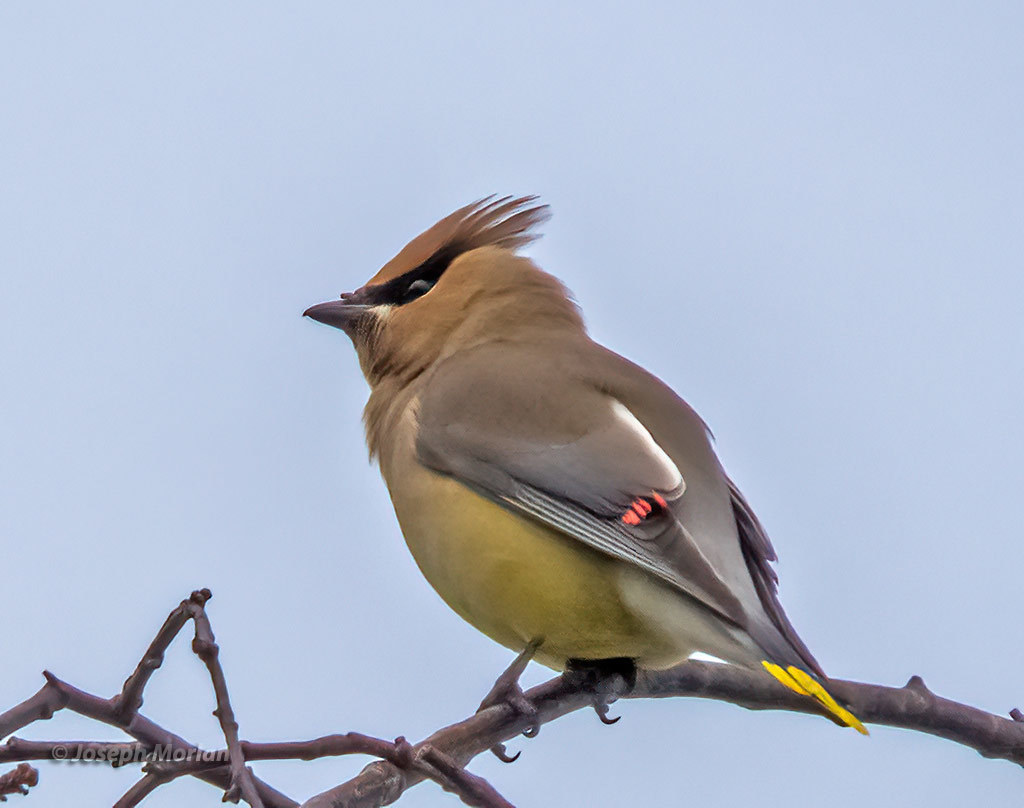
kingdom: Animalia
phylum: Chordata
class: Aves
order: Passeriformes
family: Bombycillidae
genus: Bombycilla
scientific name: Bombycilla cedrorum
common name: Cedar waxwing
